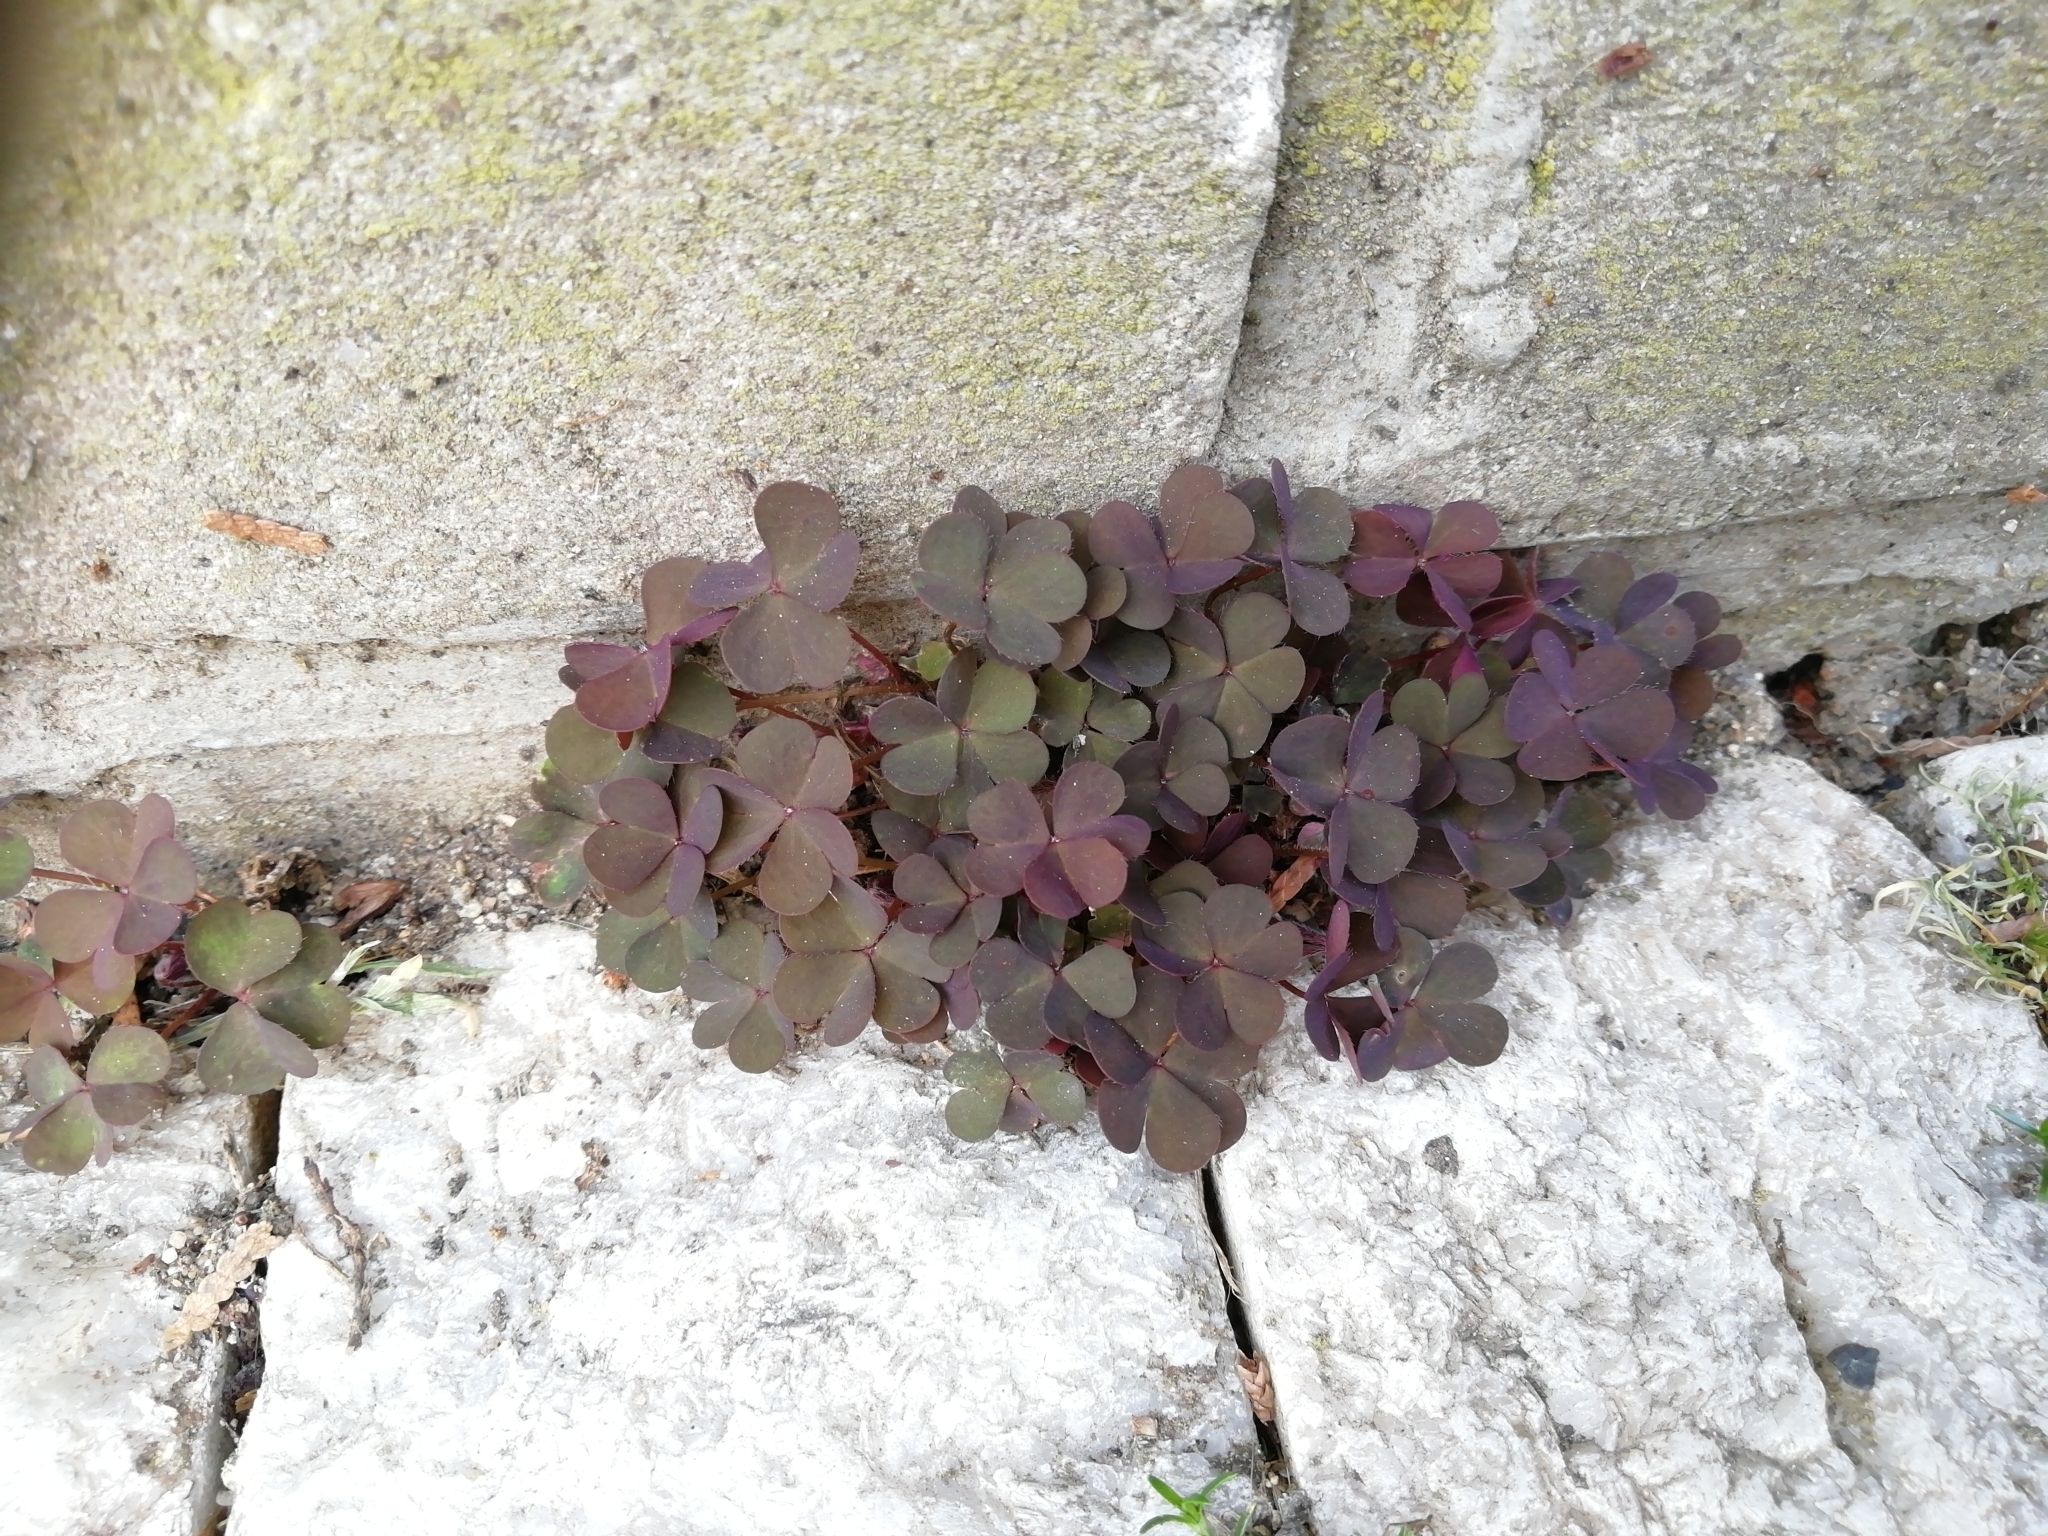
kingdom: Plantae
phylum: Tracheophyta
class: Magnoliopsida
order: Oxalidales
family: Oxalidaceae
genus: Oxalis
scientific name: Oxalis corniculata
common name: Procumbent yellow-sorrel
